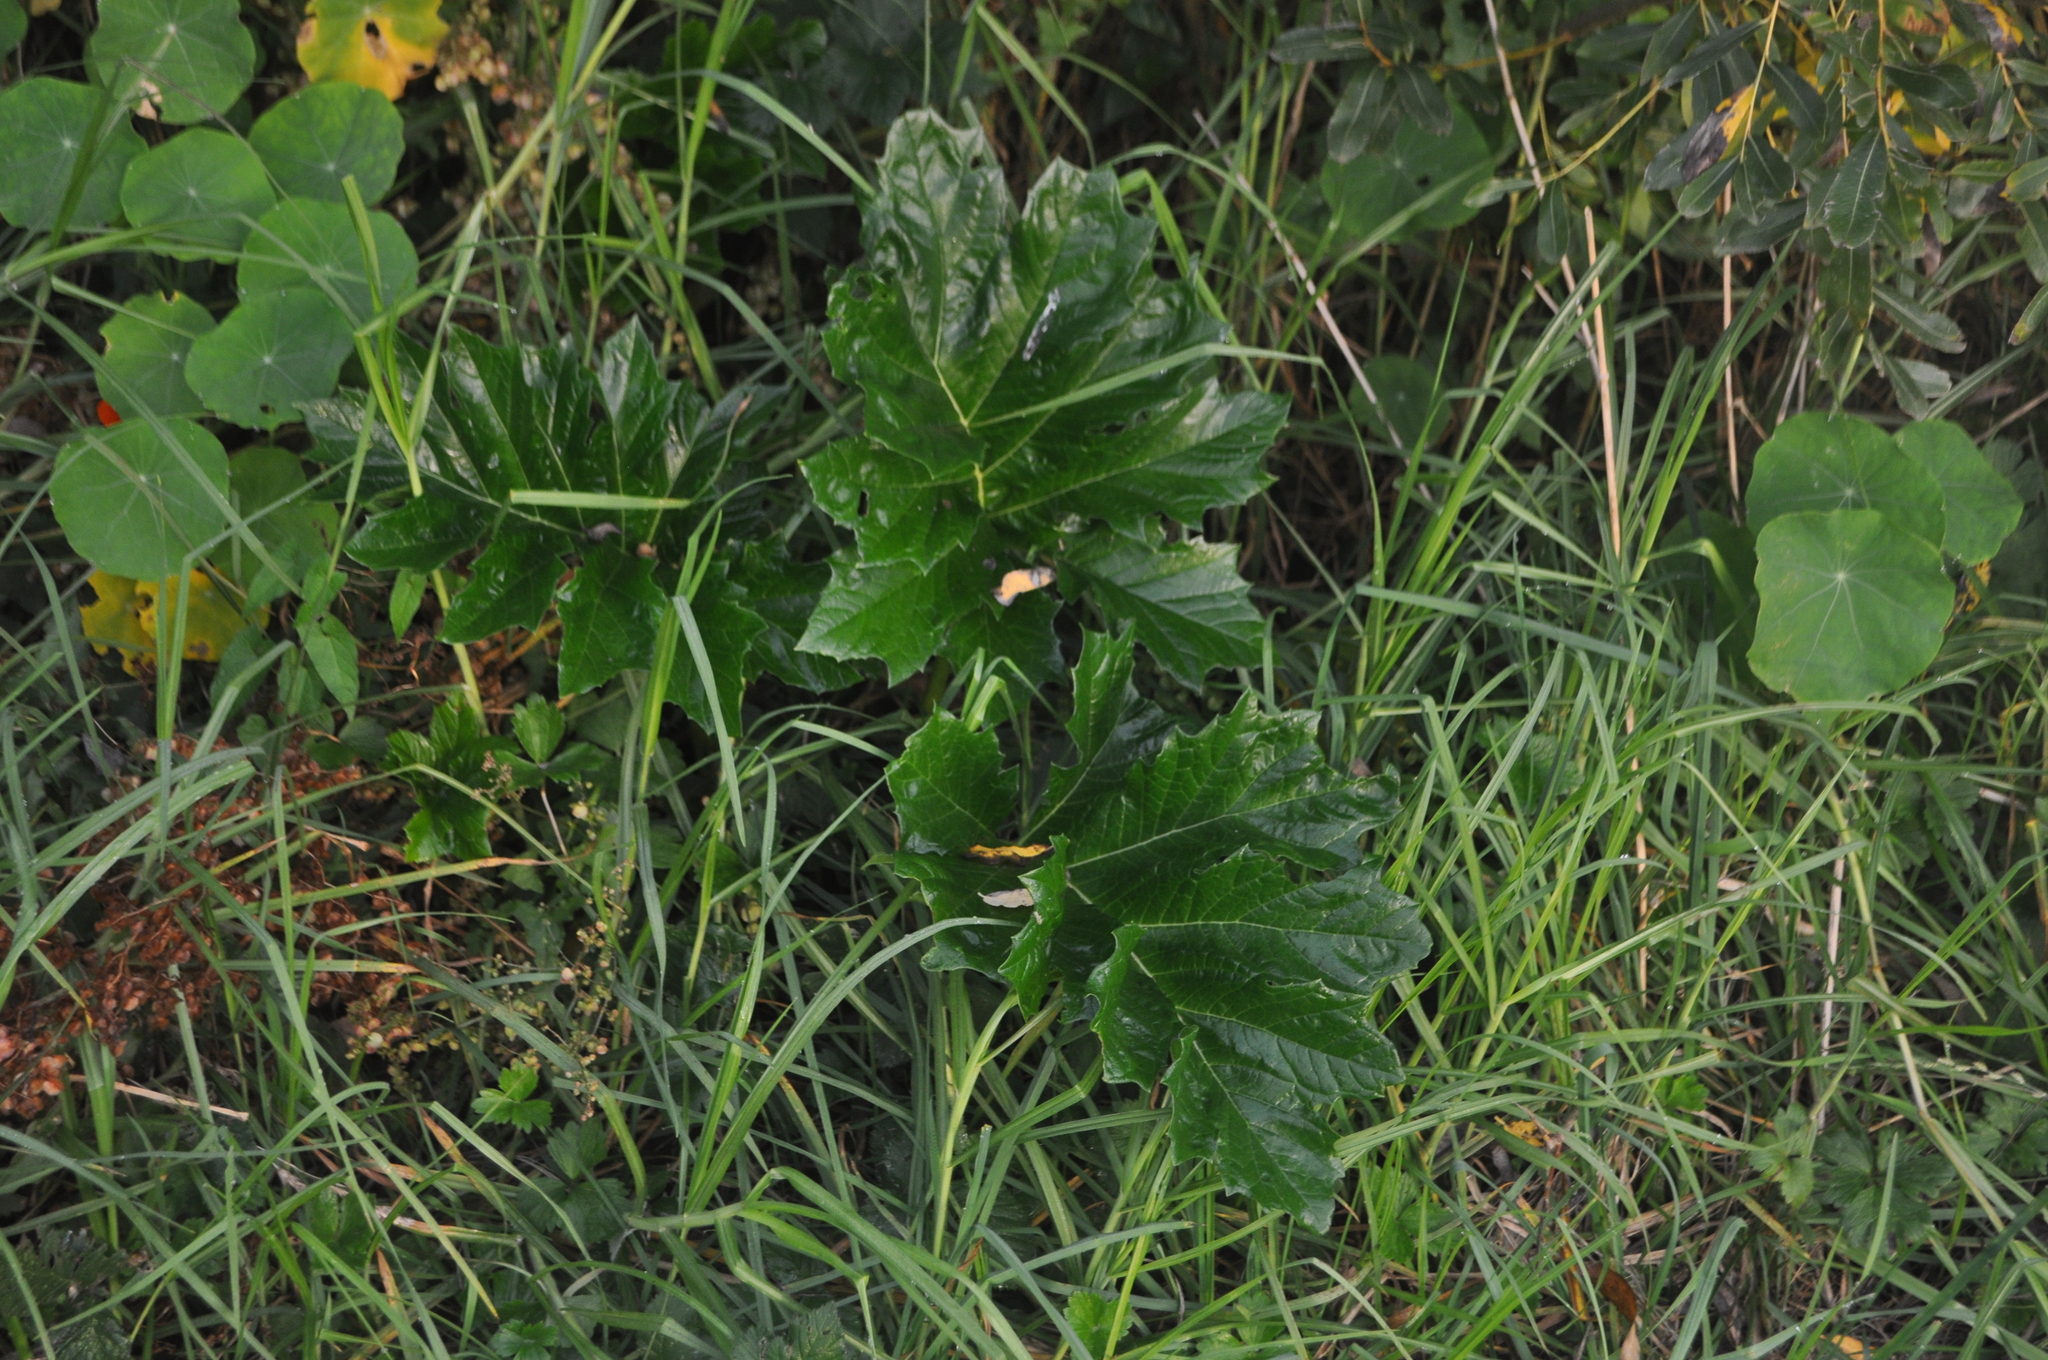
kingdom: Plantae
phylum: Tracheophyta
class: Magnoliopsida
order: Lamiales
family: Acanthaceae
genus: Acanthus
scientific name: Acanthus mollis
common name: Bear's-breech
